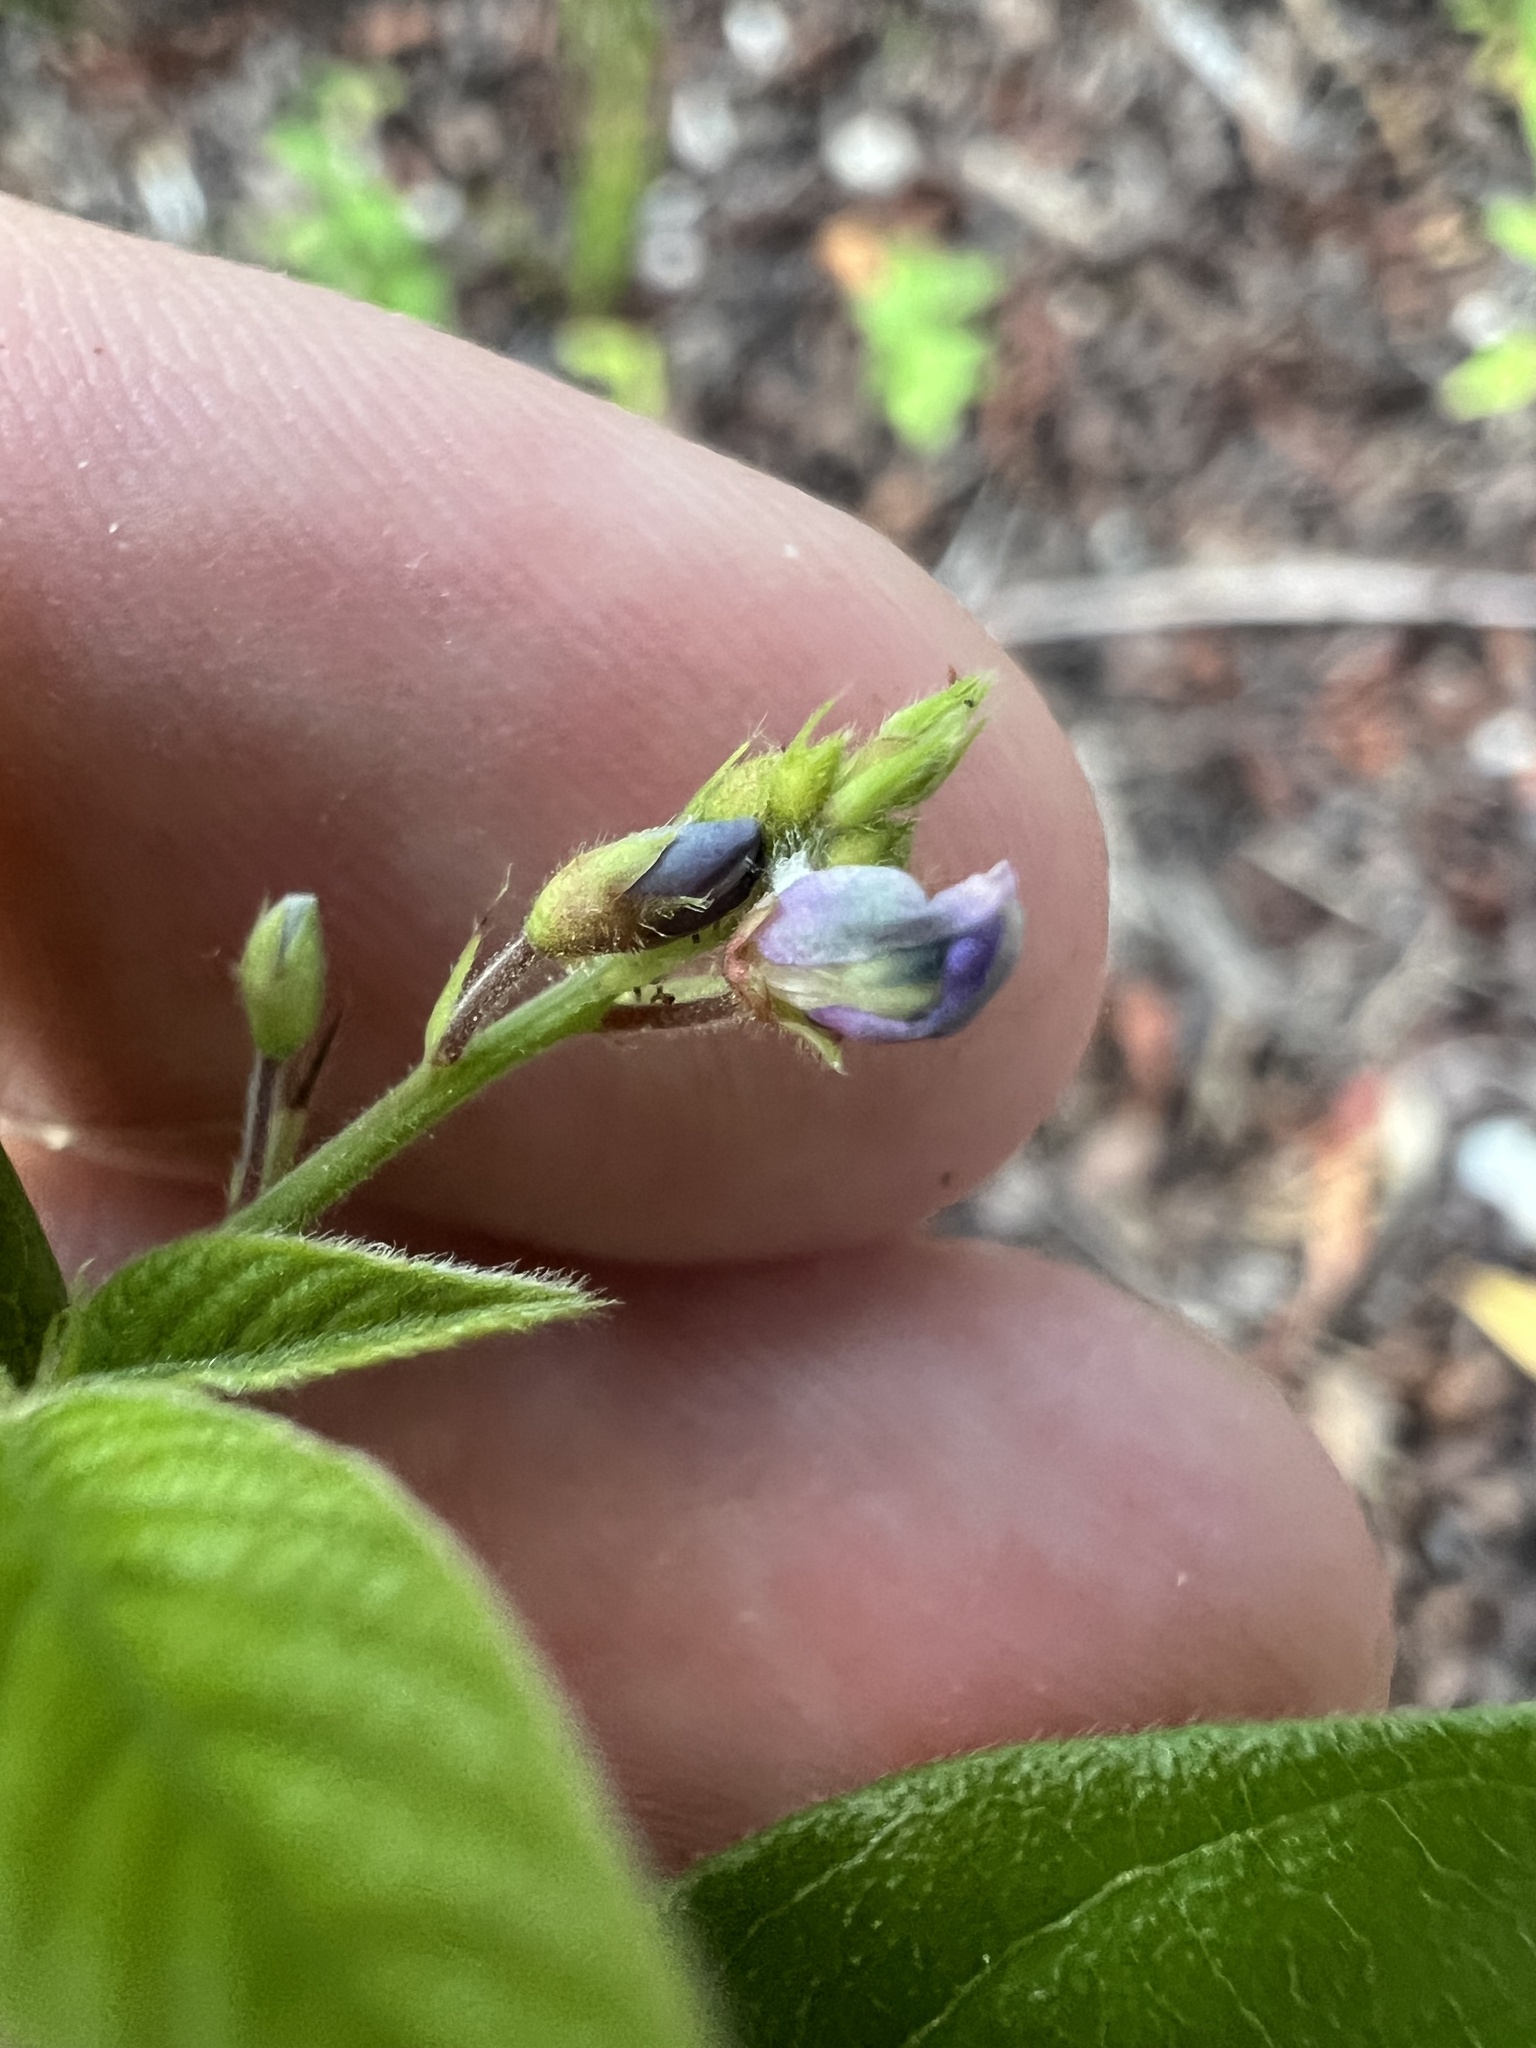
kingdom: Plantae
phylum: Tracheophyta
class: Magnoliopsida
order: Fabales
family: Fabaceae
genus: Desmodium
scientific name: Desmodium incanum
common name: Tickclover
